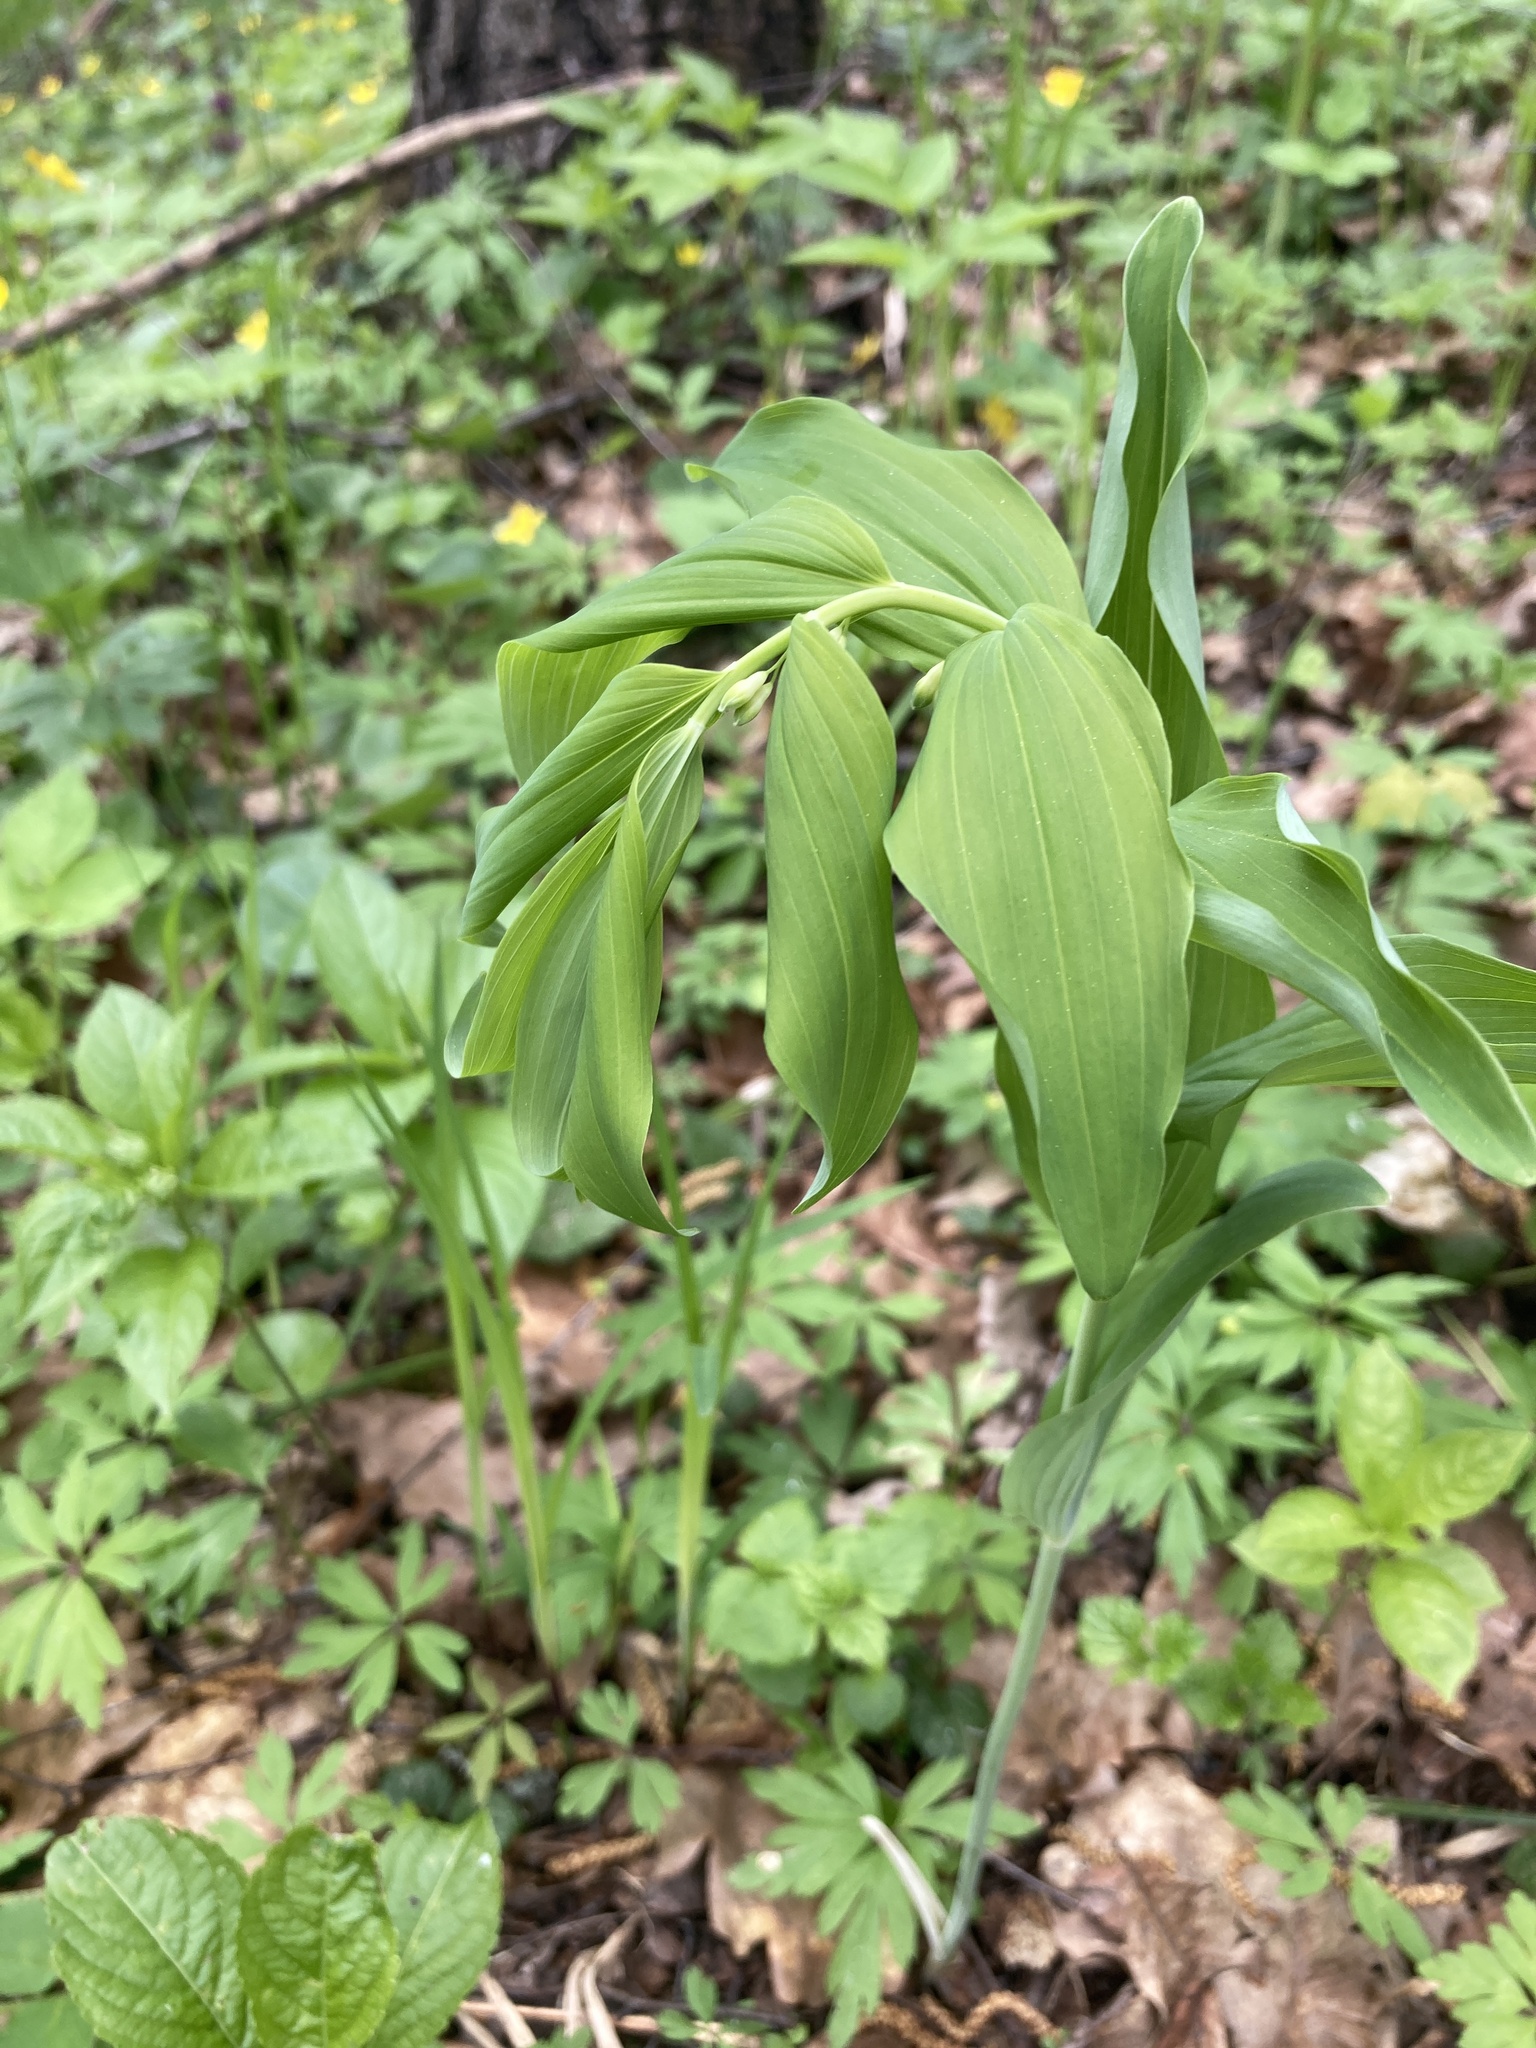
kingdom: Plantae
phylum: Tracheophyta
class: Liliopsida
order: Asparagales
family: Asparagaceae
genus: Polygonatum
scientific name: Polygonatum multiflorum
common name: Solomon's-seal
